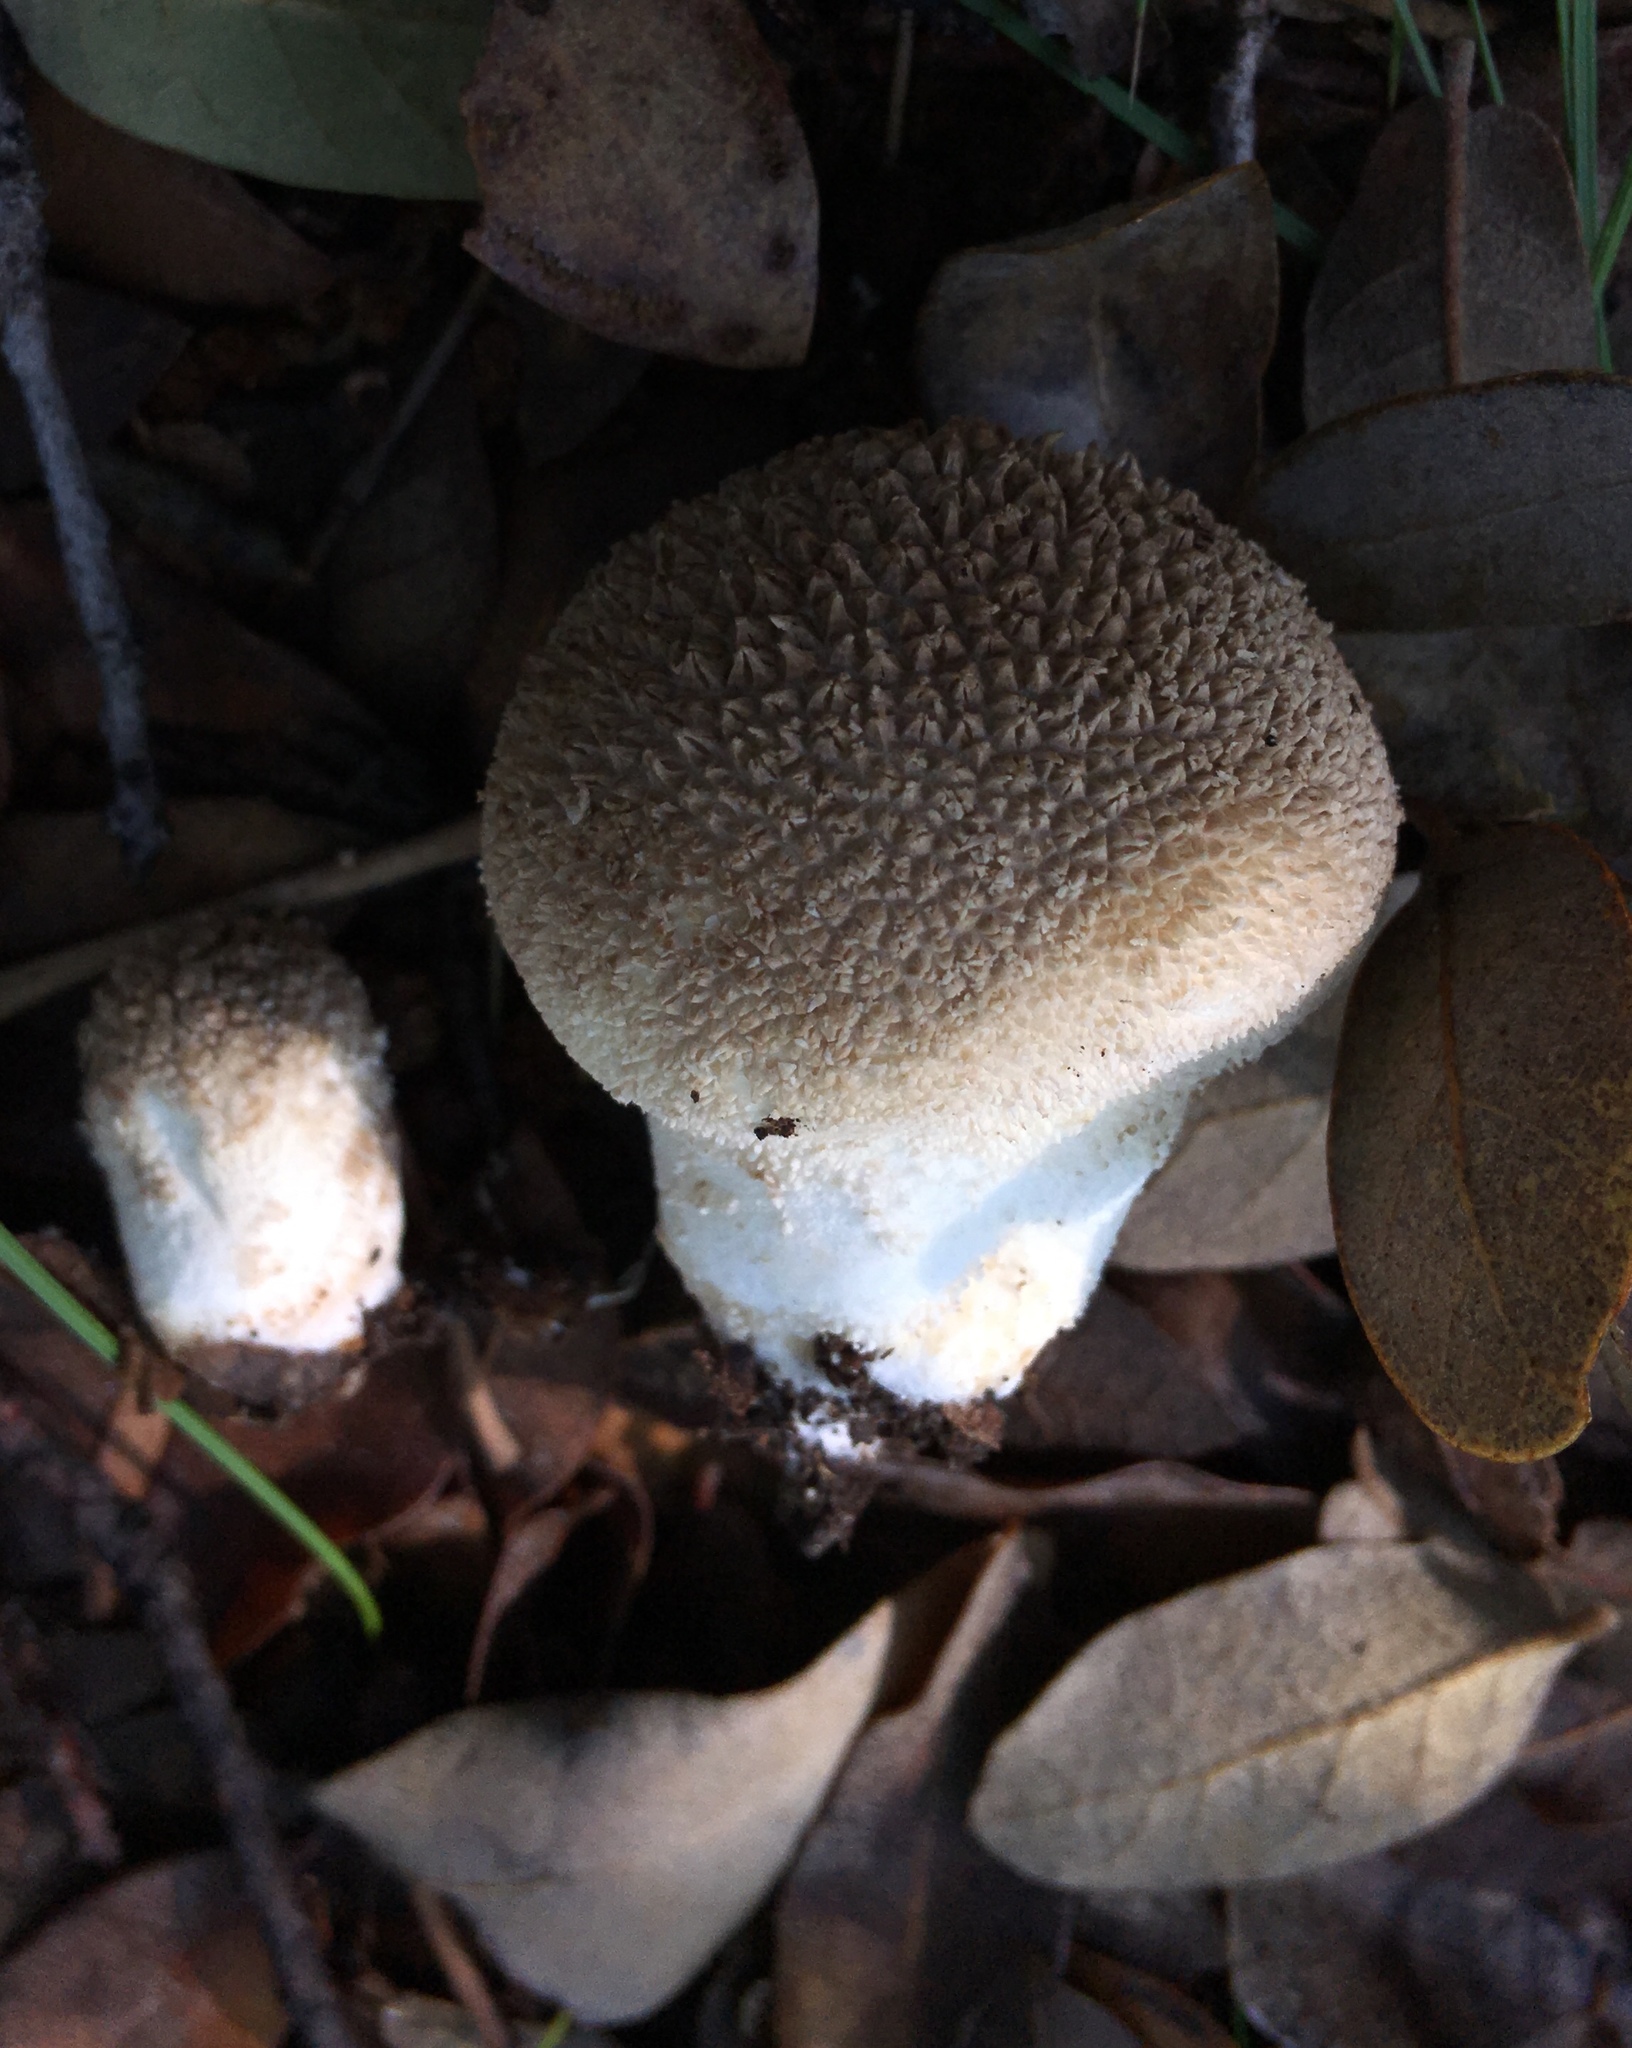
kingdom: Fungi
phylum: Basidiomycota
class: Agaricomycetes
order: Agaricales
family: Agaricaceae
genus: Lycoperdon
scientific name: Lycoperdon marginatum
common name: Peeling puffball
